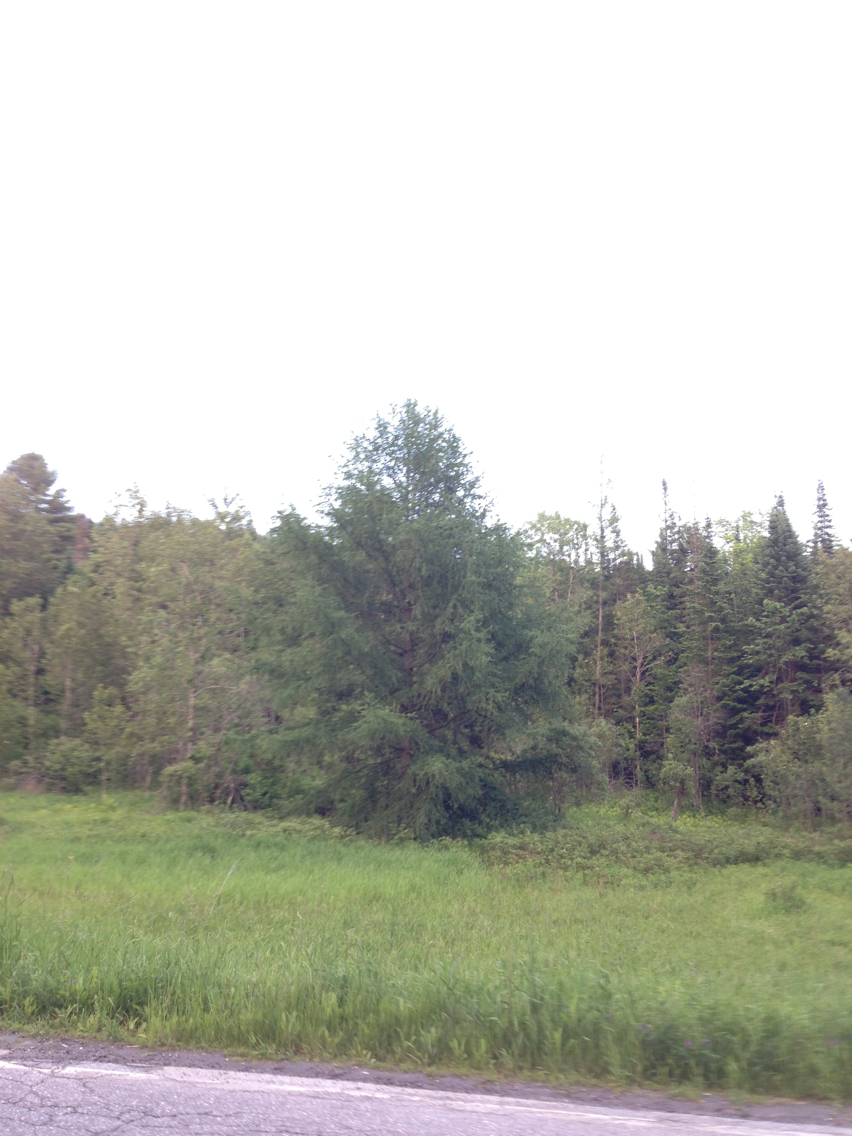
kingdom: Plantae
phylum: Tracheophyta
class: Pinopsida
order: Pinales
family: Pinaceae
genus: Larix
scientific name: Larix laricina
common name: American larch
